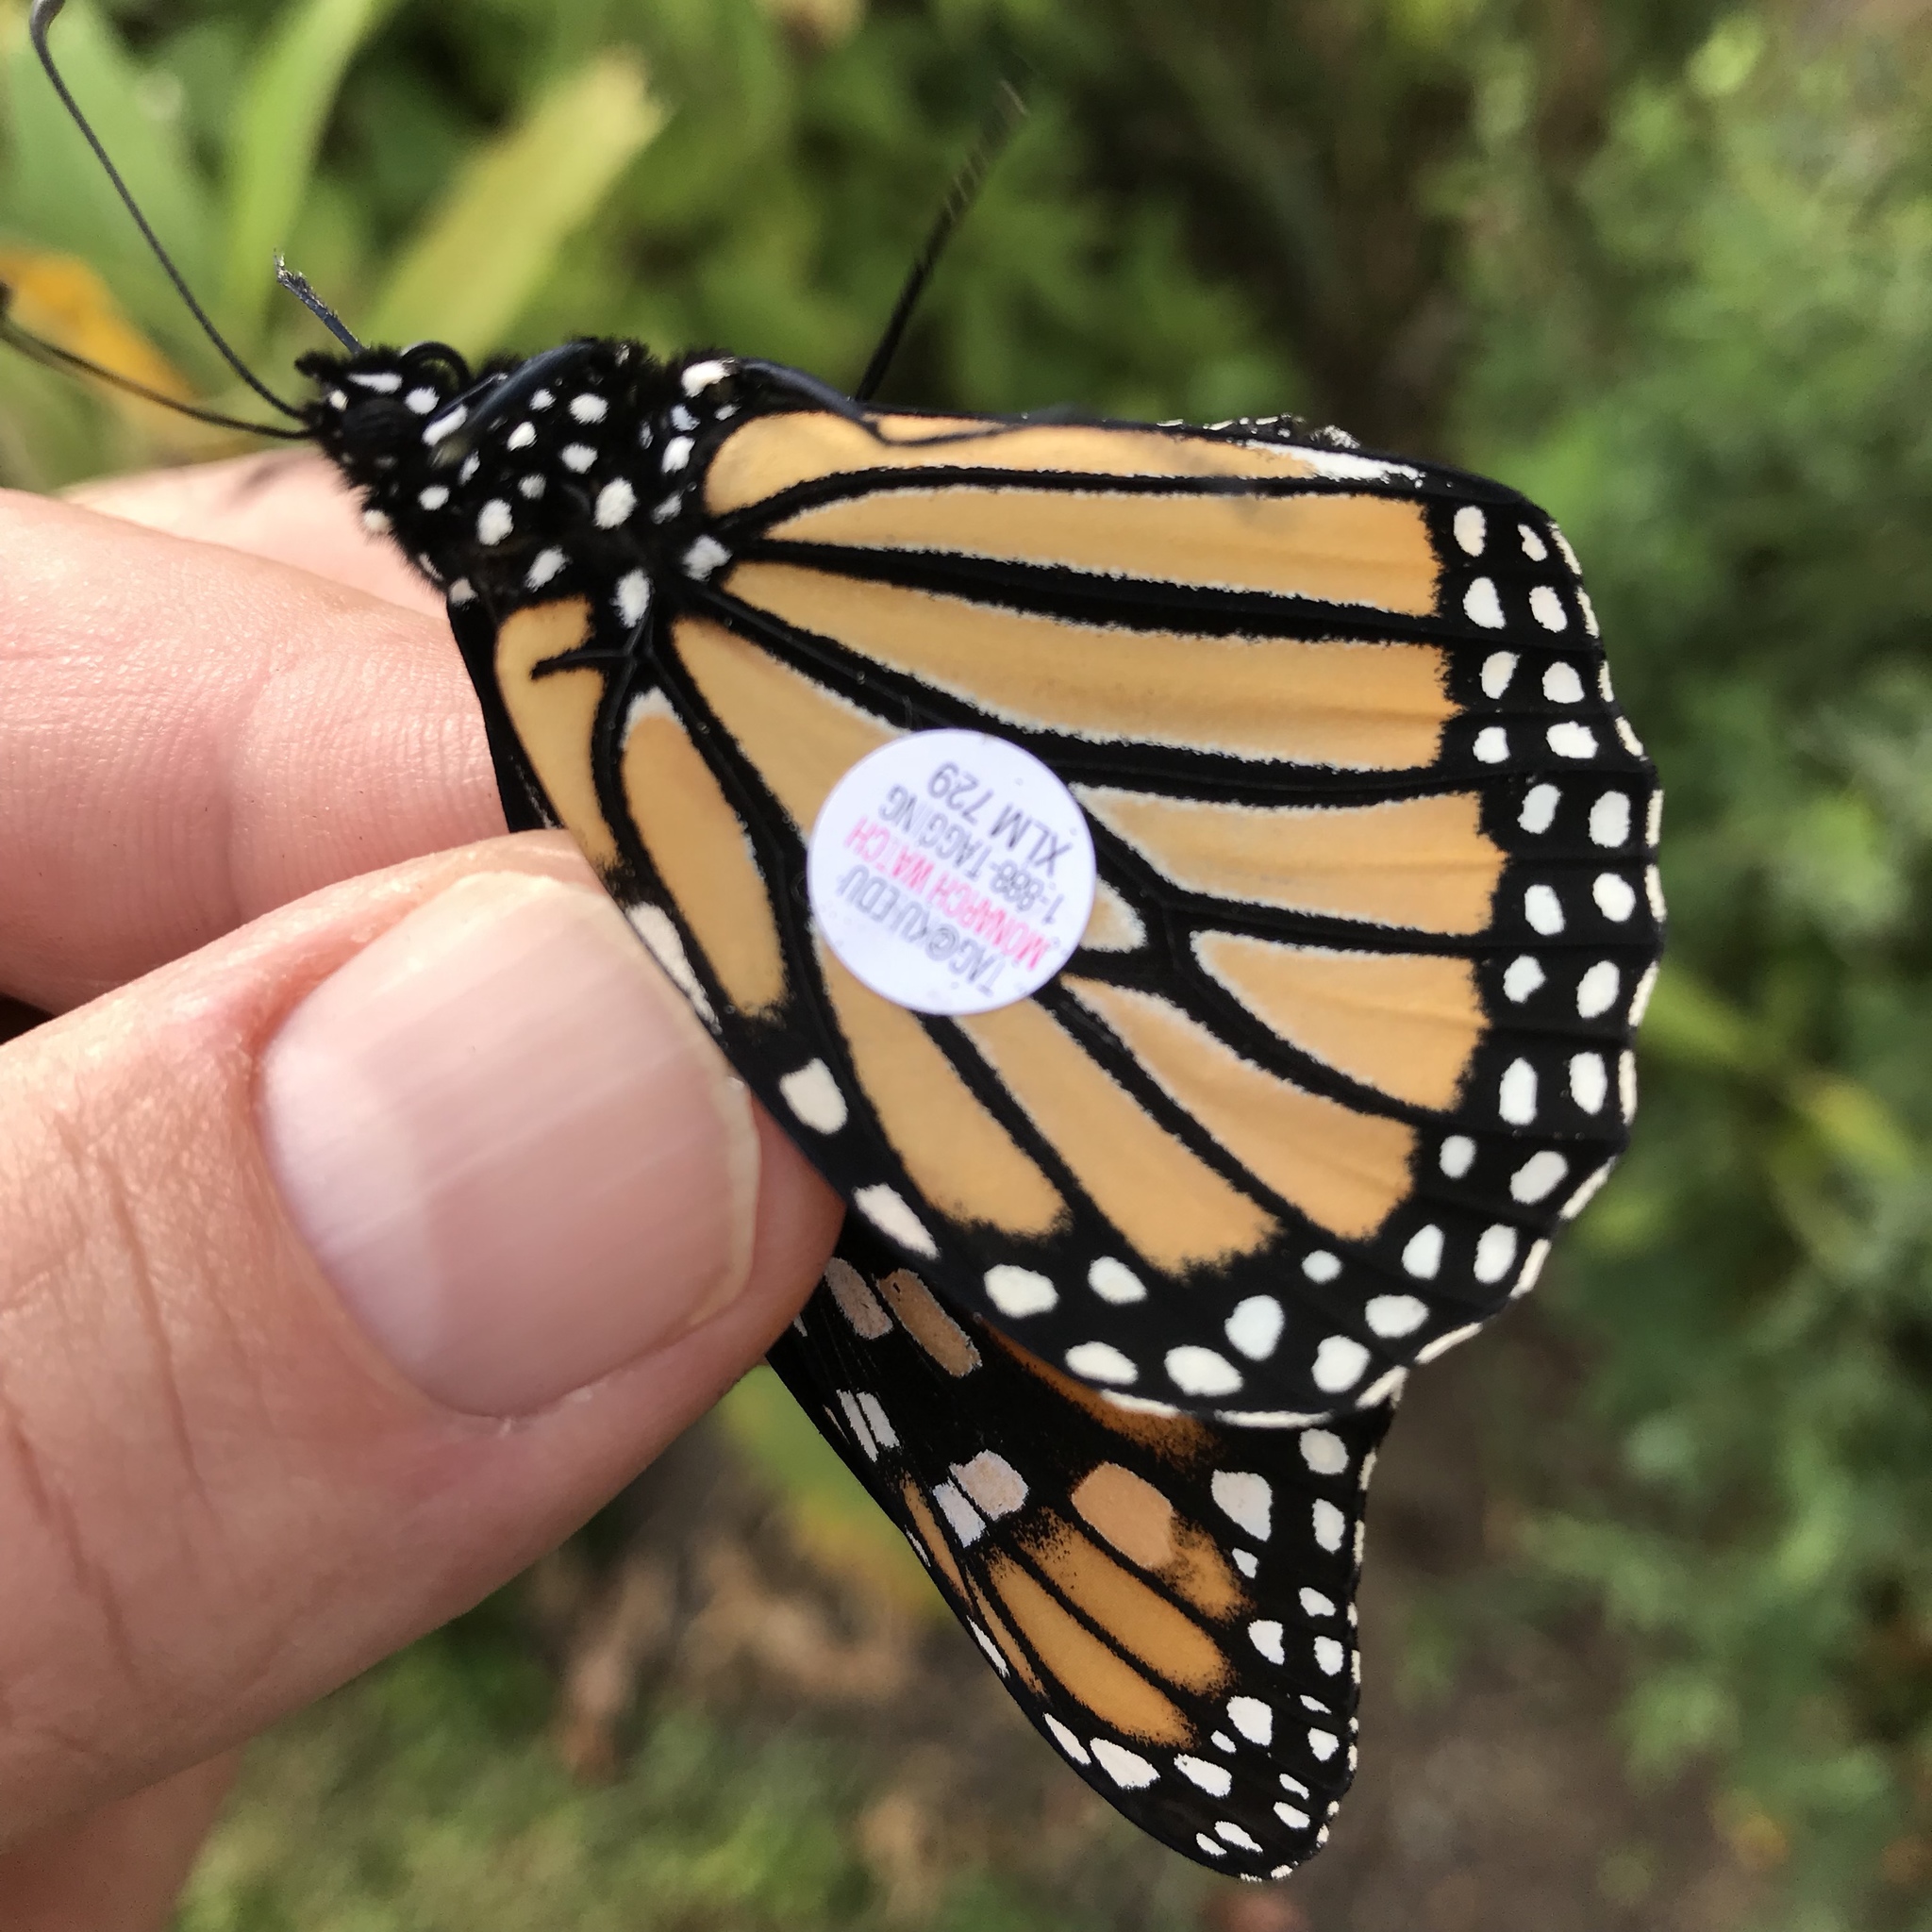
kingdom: Animalia
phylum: Arthropoda
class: Insecta
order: Lepidoptera
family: Nymphalidae
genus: Danaus
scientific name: Danaus plexippus
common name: Monarch
